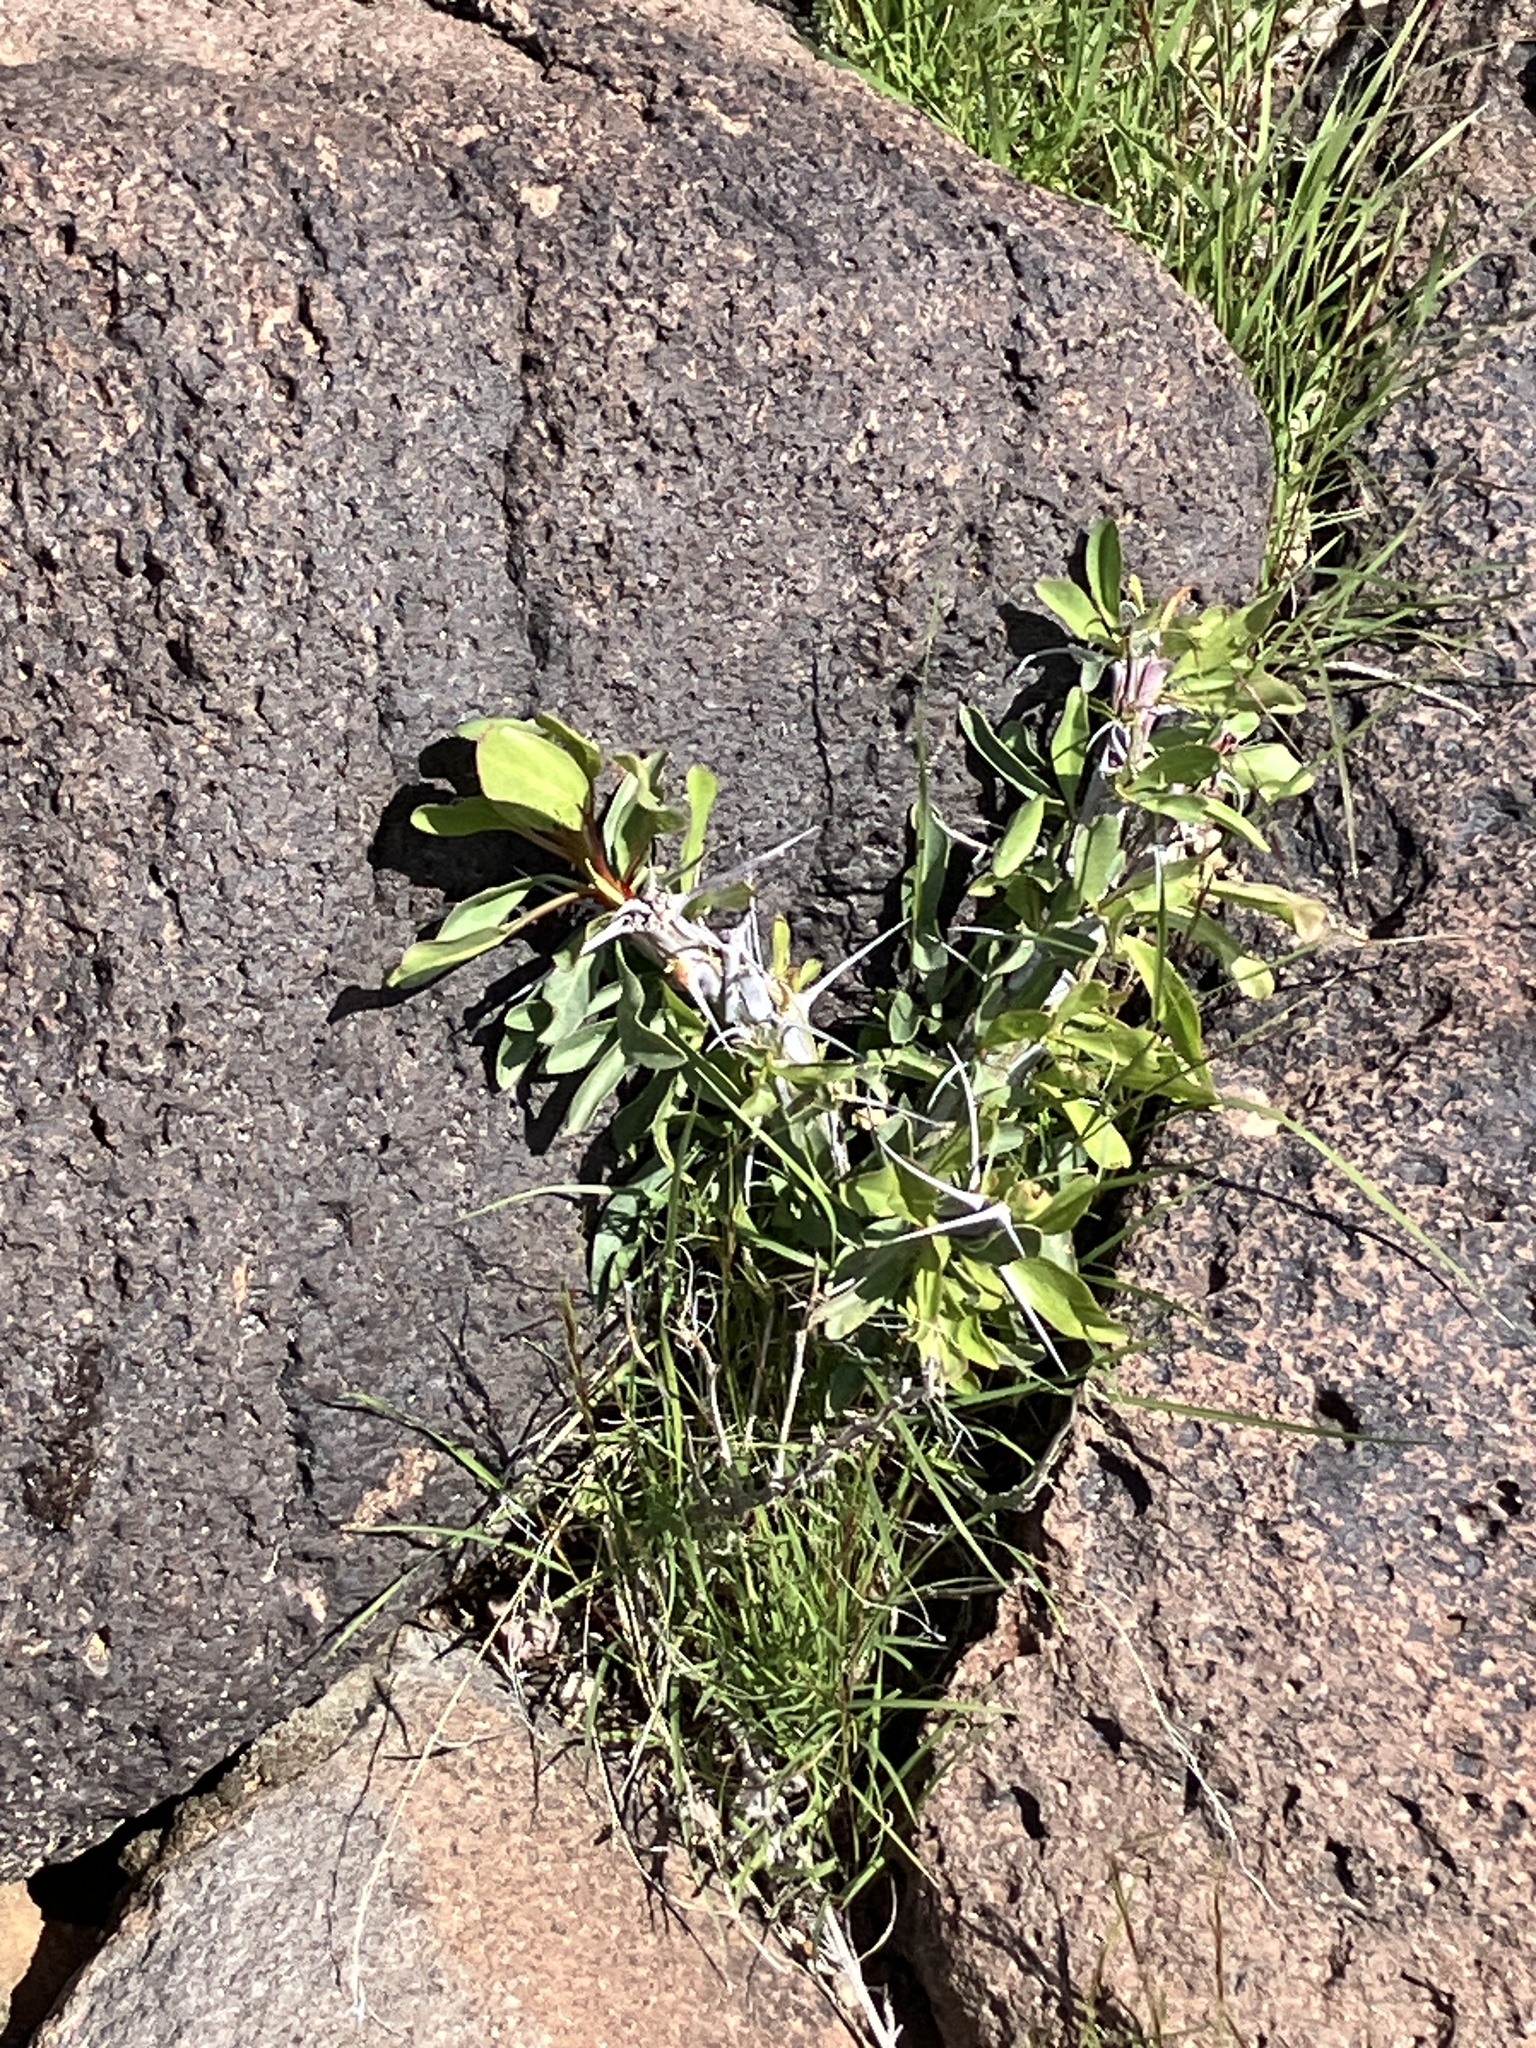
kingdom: Plantae
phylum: Tracheophyta
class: Magnoliopsida
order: Ericales
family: Fouquieriaceae
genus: Fouquieria
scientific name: Fouquieria splendens
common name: Vine-cactus
